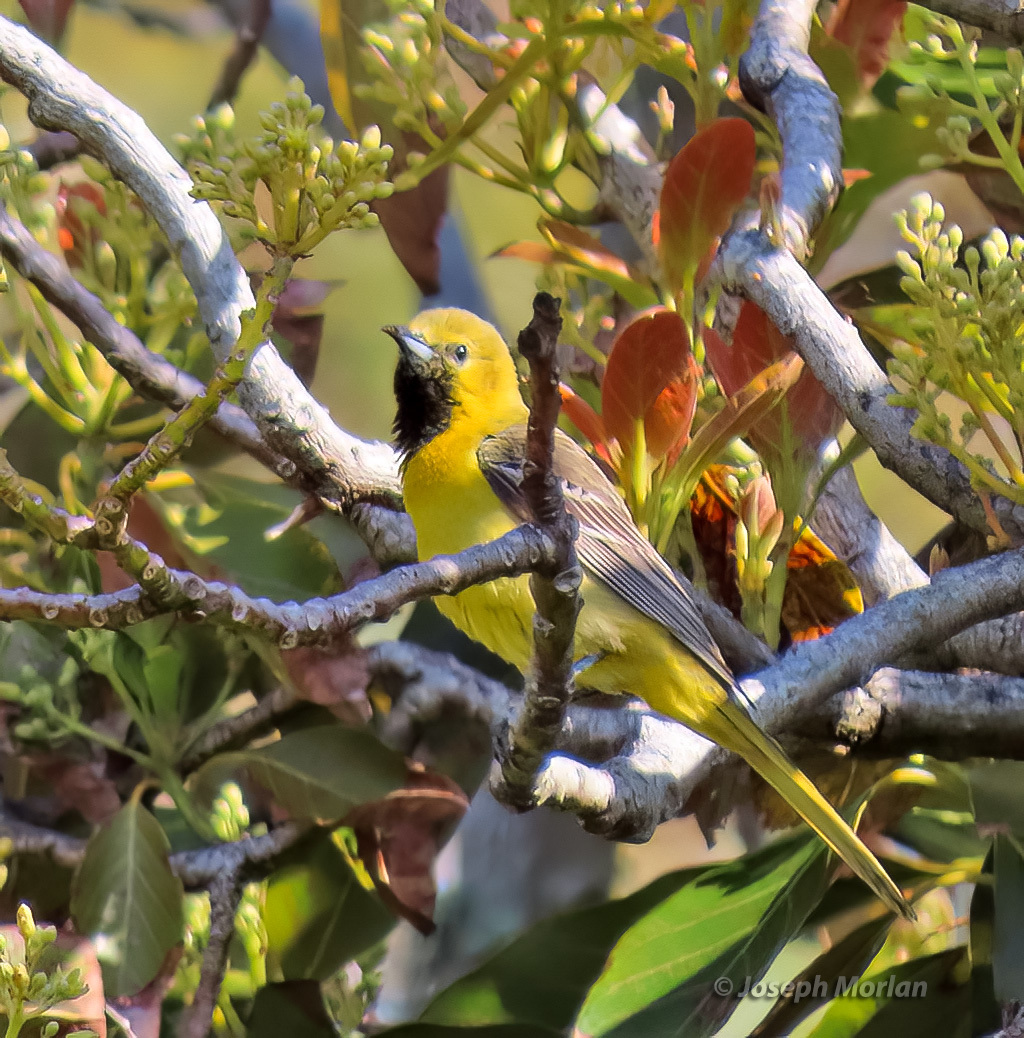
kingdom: Animalia
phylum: Chordata
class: Aves
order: Passeriformes
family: Icteridae
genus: Icterus
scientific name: Icterus cucullatus
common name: Hooded oriole
